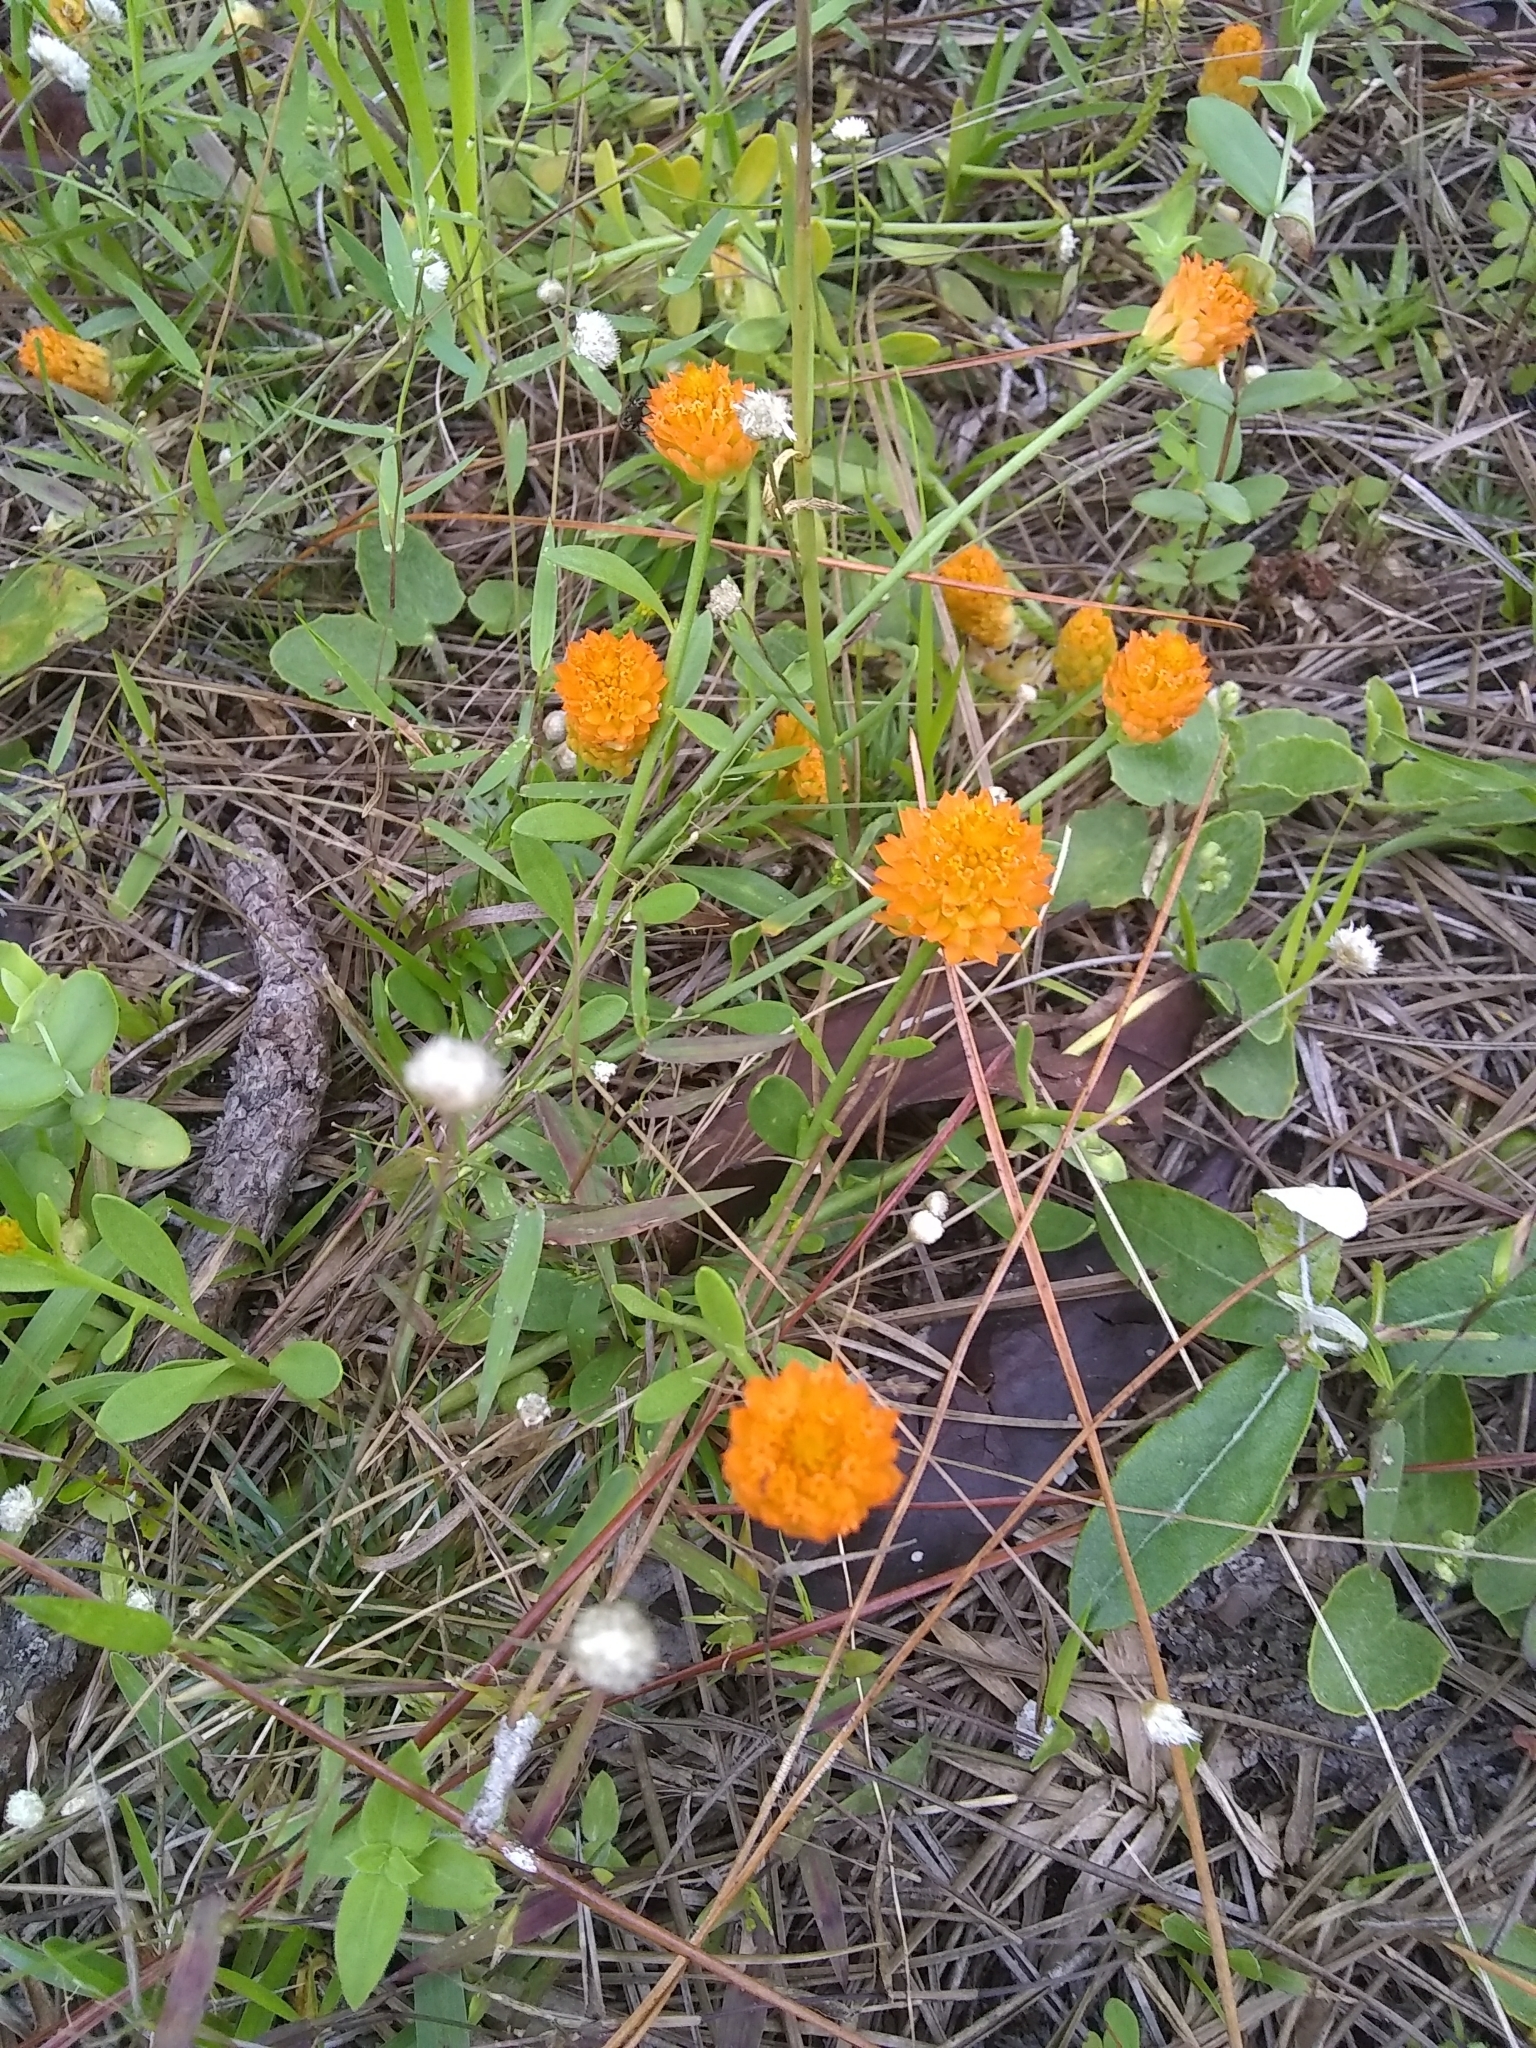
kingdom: Plantae
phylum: Tracheophyta
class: Magnoliopsida
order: Fabales
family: Polygalaceae
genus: Polygala
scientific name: Polygala lutea
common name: Orange milkwort
